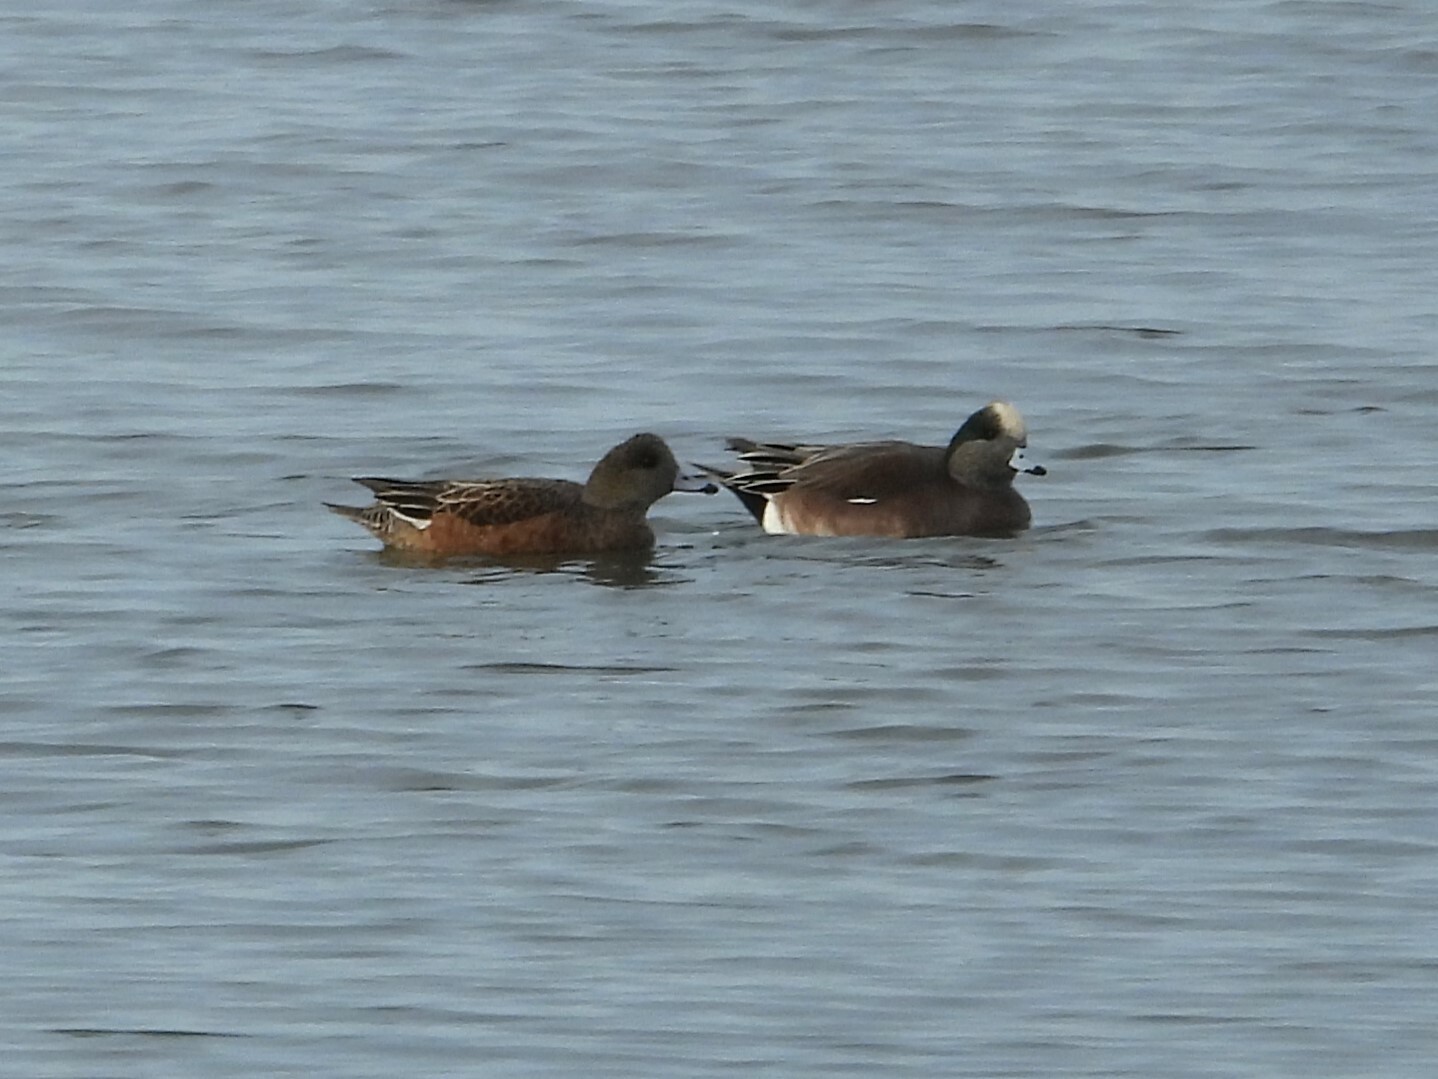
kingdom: Animalia
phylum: Chordata
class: Aves
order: Anseriformes
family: Anatidae
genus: Mareca
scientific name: Mareca americana
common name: American wigeon
